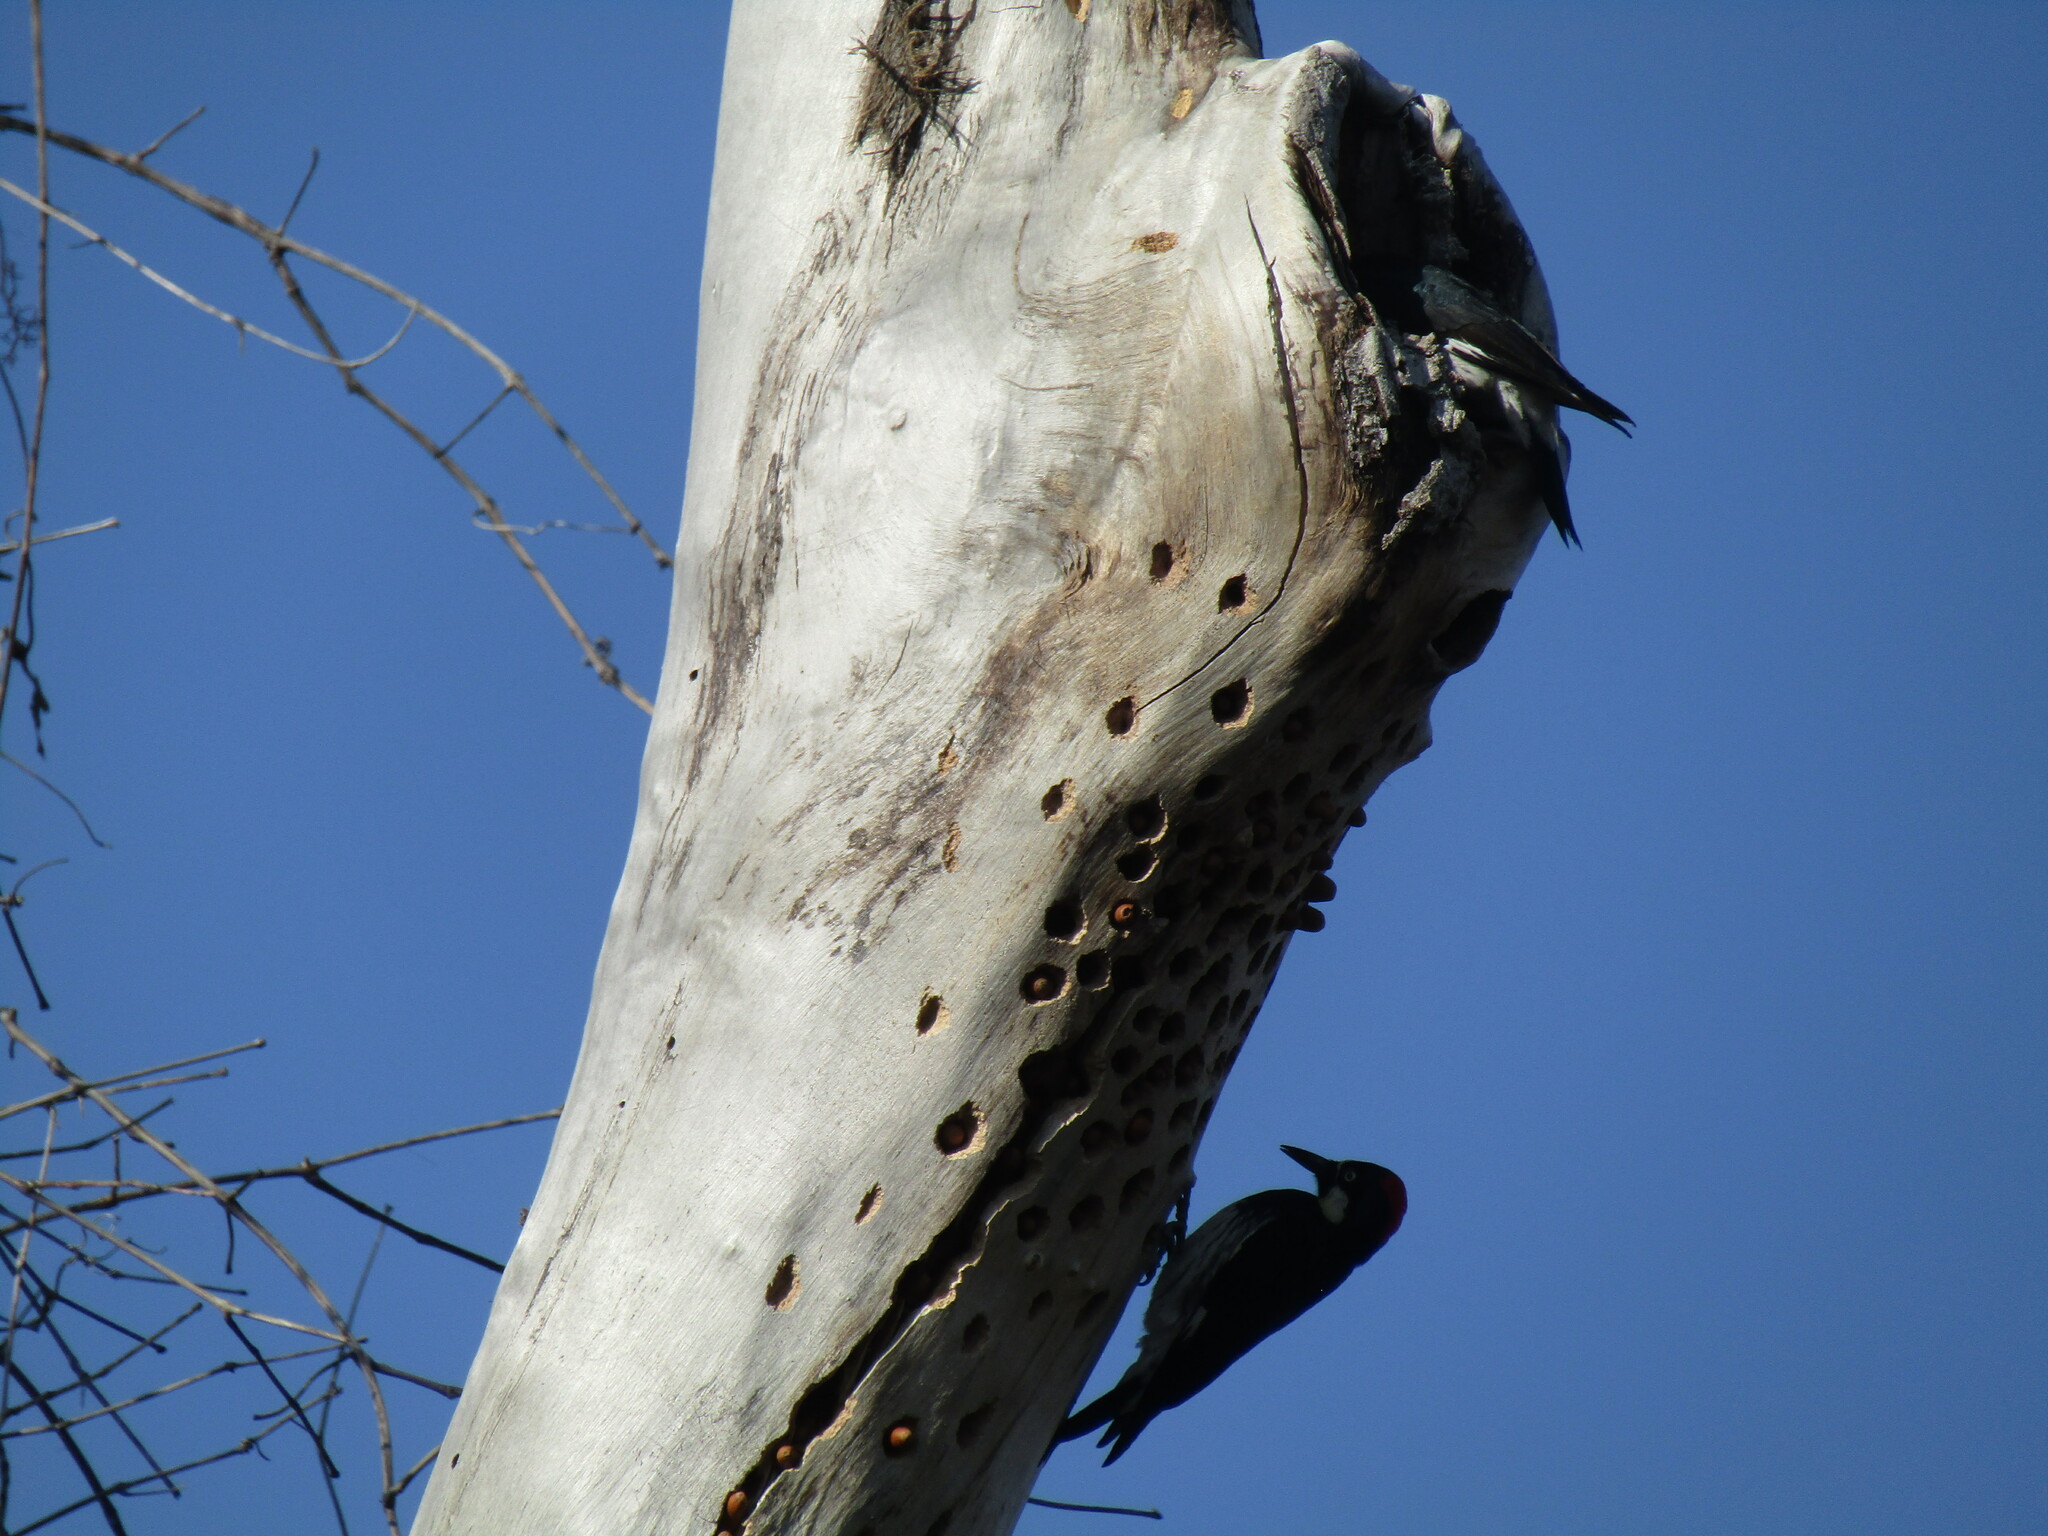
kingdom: Animalia
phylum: Chordata
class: Aves
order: Piciformes
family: Picidae
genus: Melanerpes
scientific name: Melanerpes formicivorus
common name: Acorn woodpecker
